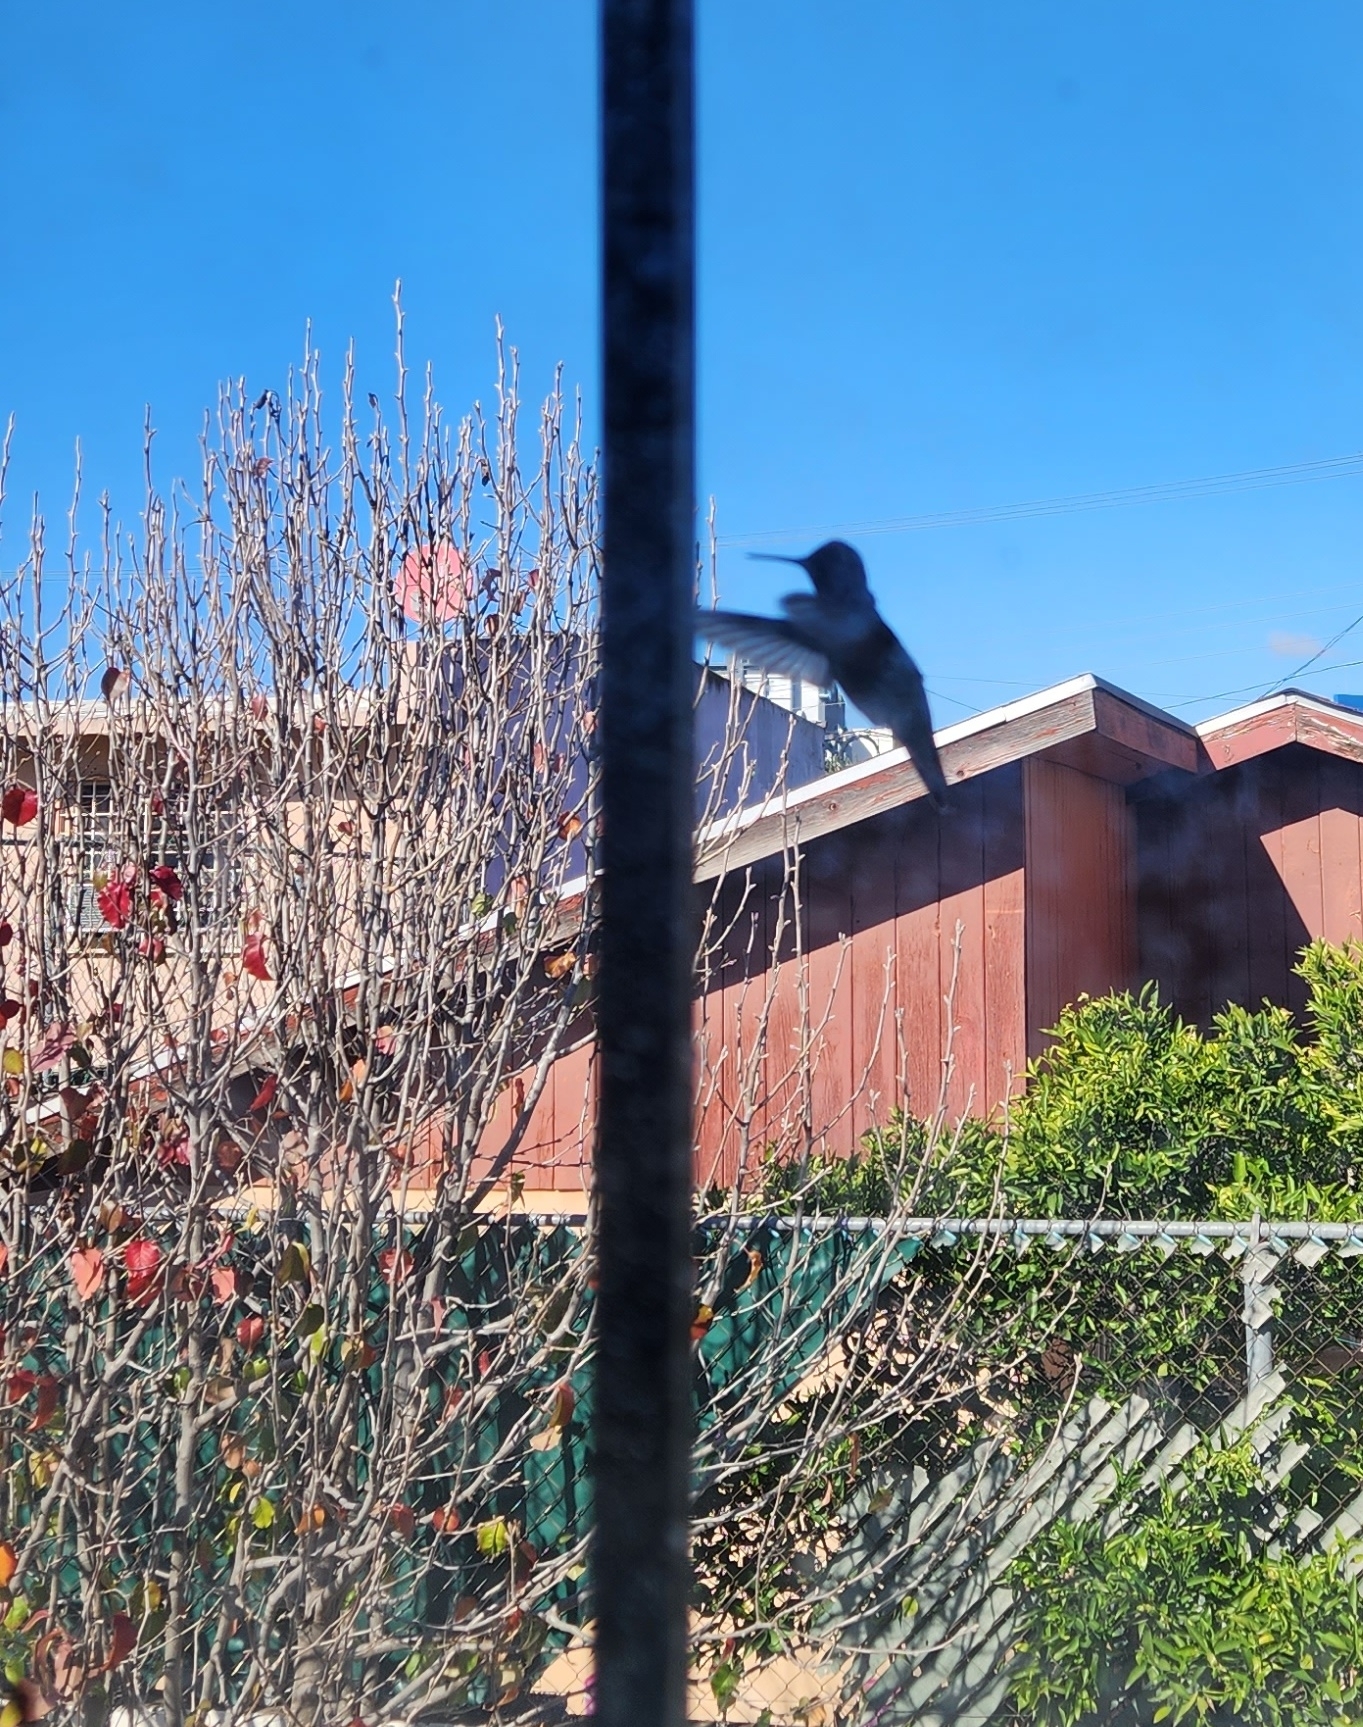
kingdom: Animalia
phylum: Chordata
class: Aves
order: Apodiformes
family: Trochilidae
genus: Calypte
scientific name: Calypte anna
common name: Anna's hummingbird
